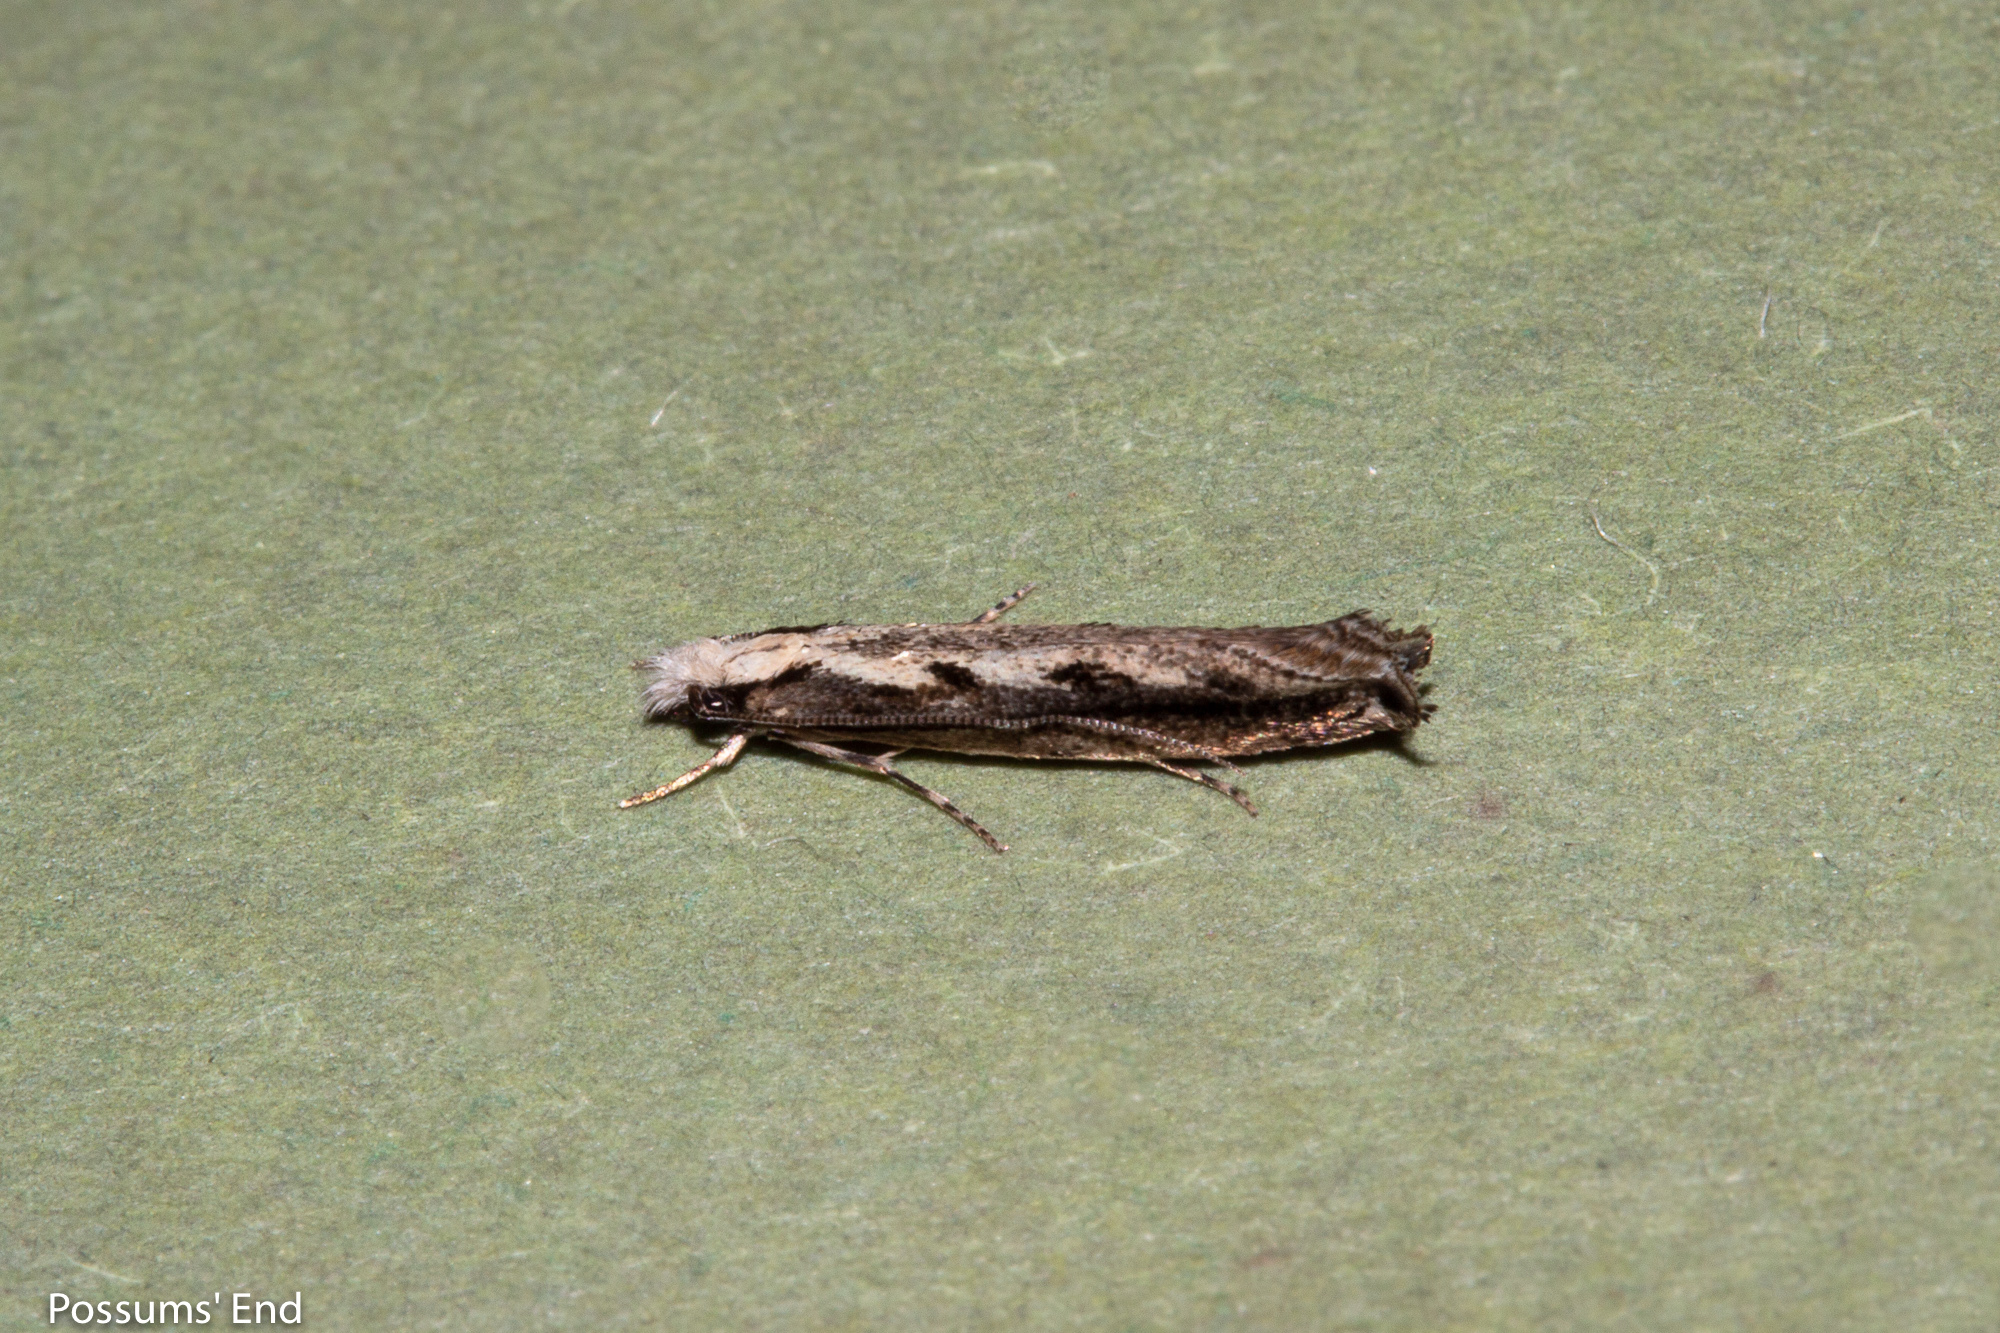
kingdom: Animalia
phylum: Arthropoda
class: Insecta
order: Lepidoptera
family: Tineidae
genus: Erechthias
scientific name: Erechthias fulguritella
